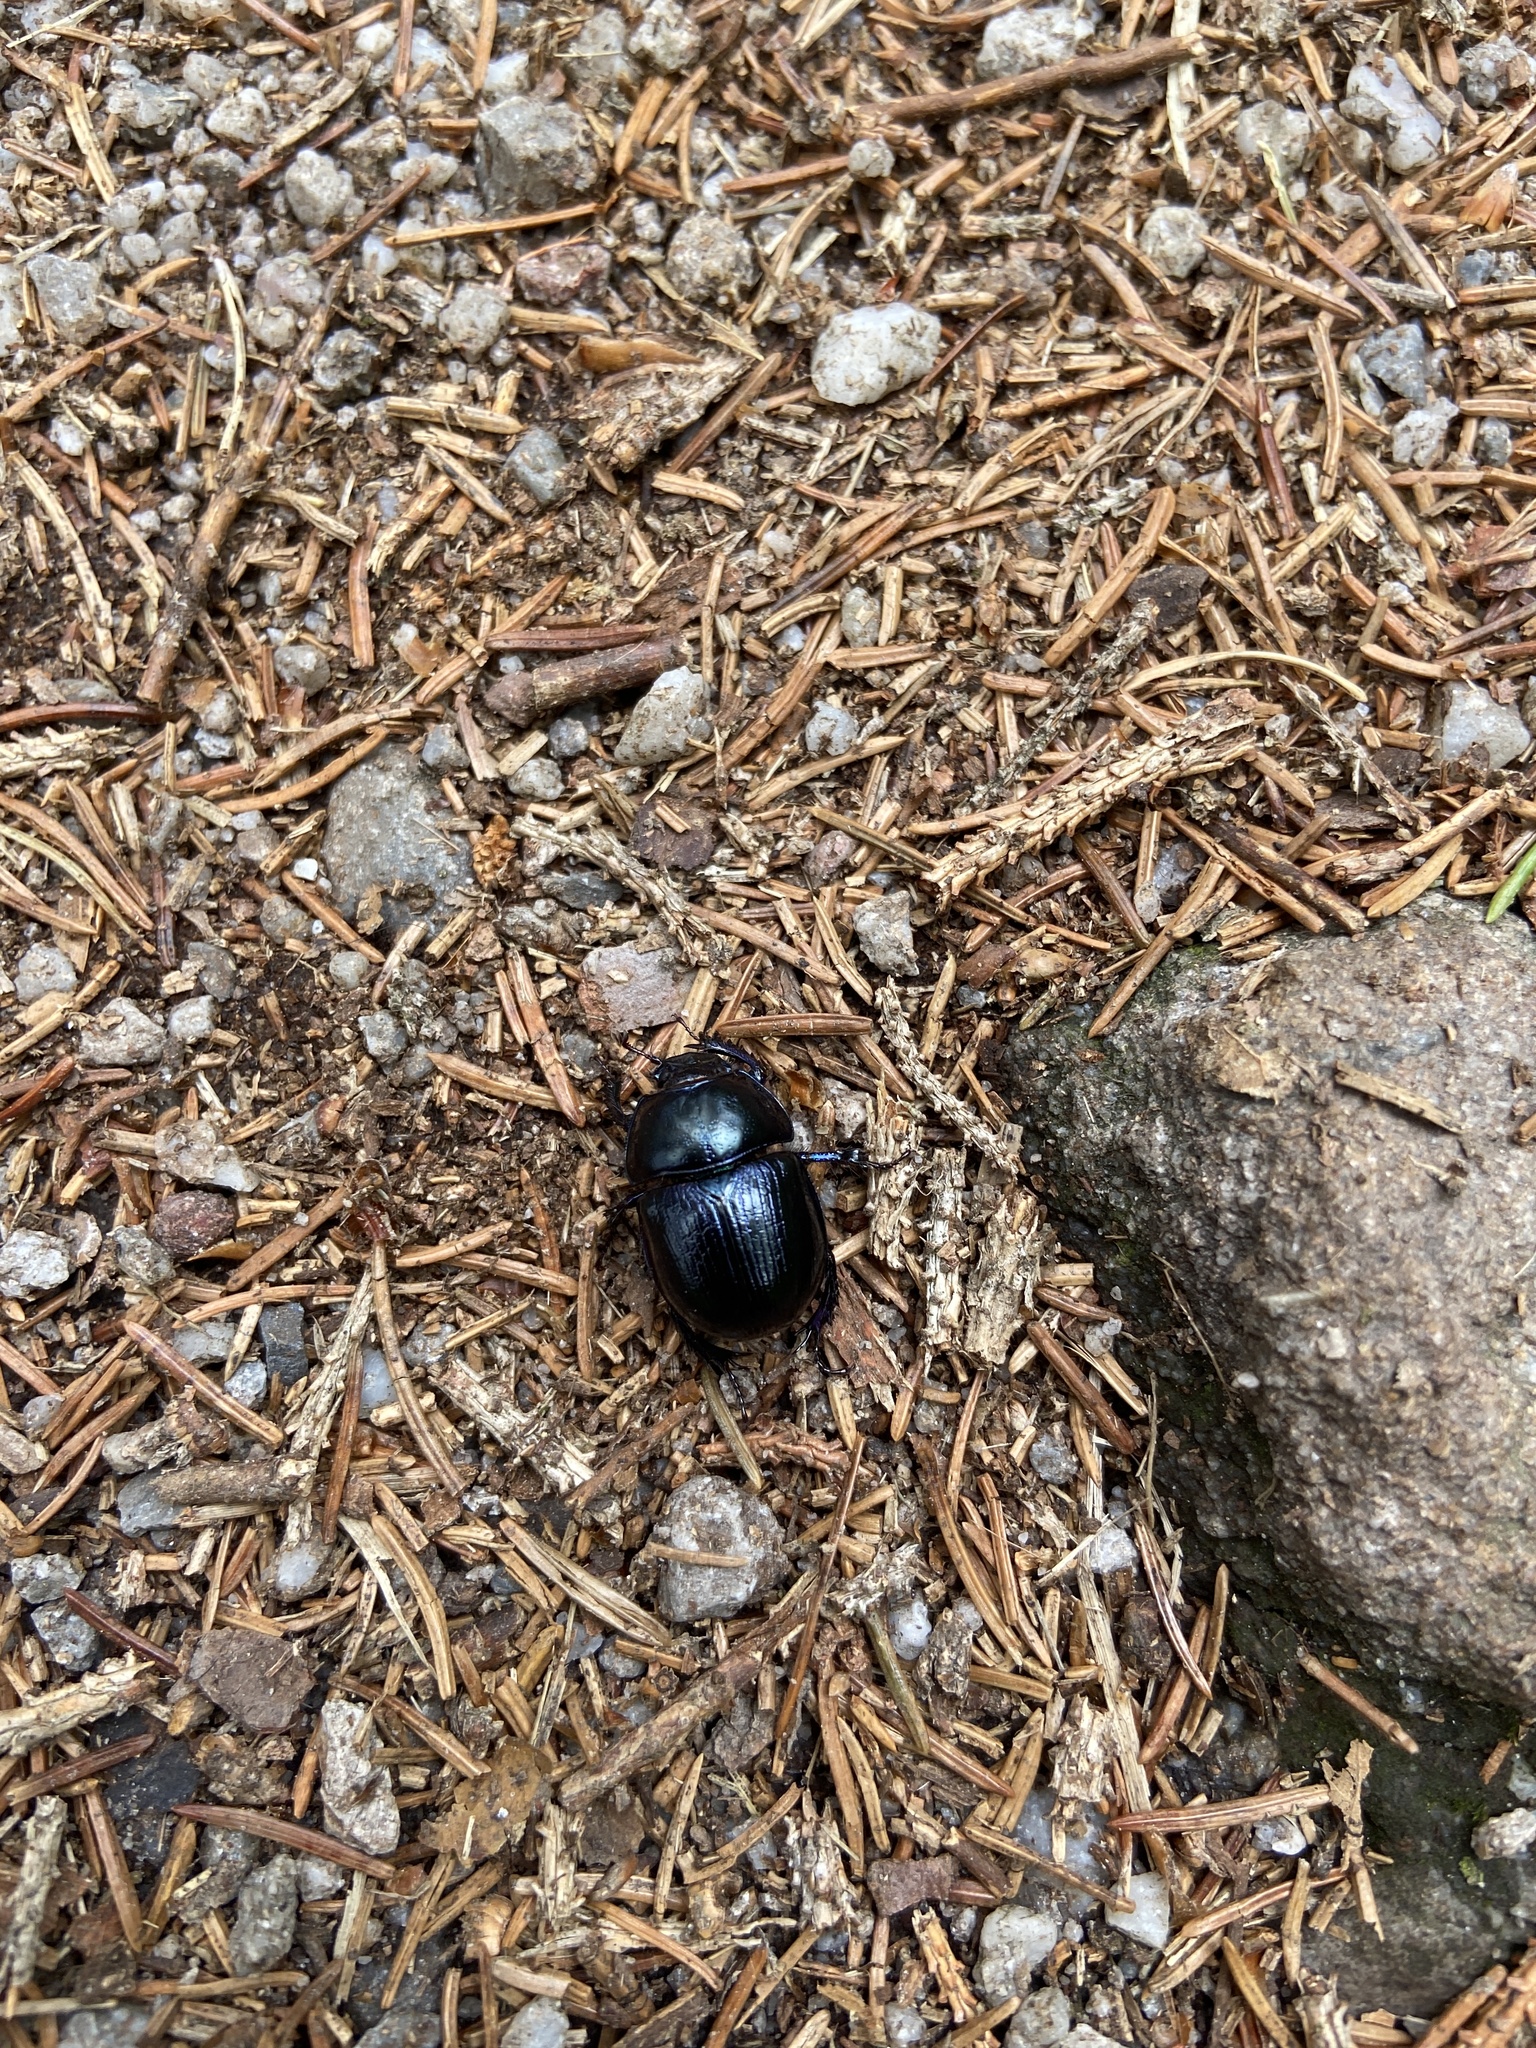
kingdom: Animalia
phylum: Arthropoda
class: Insecta
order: Coleoptera
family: Geotrupidae
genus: Anoplotrupes
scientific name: Anoplotrupes stercorosus
